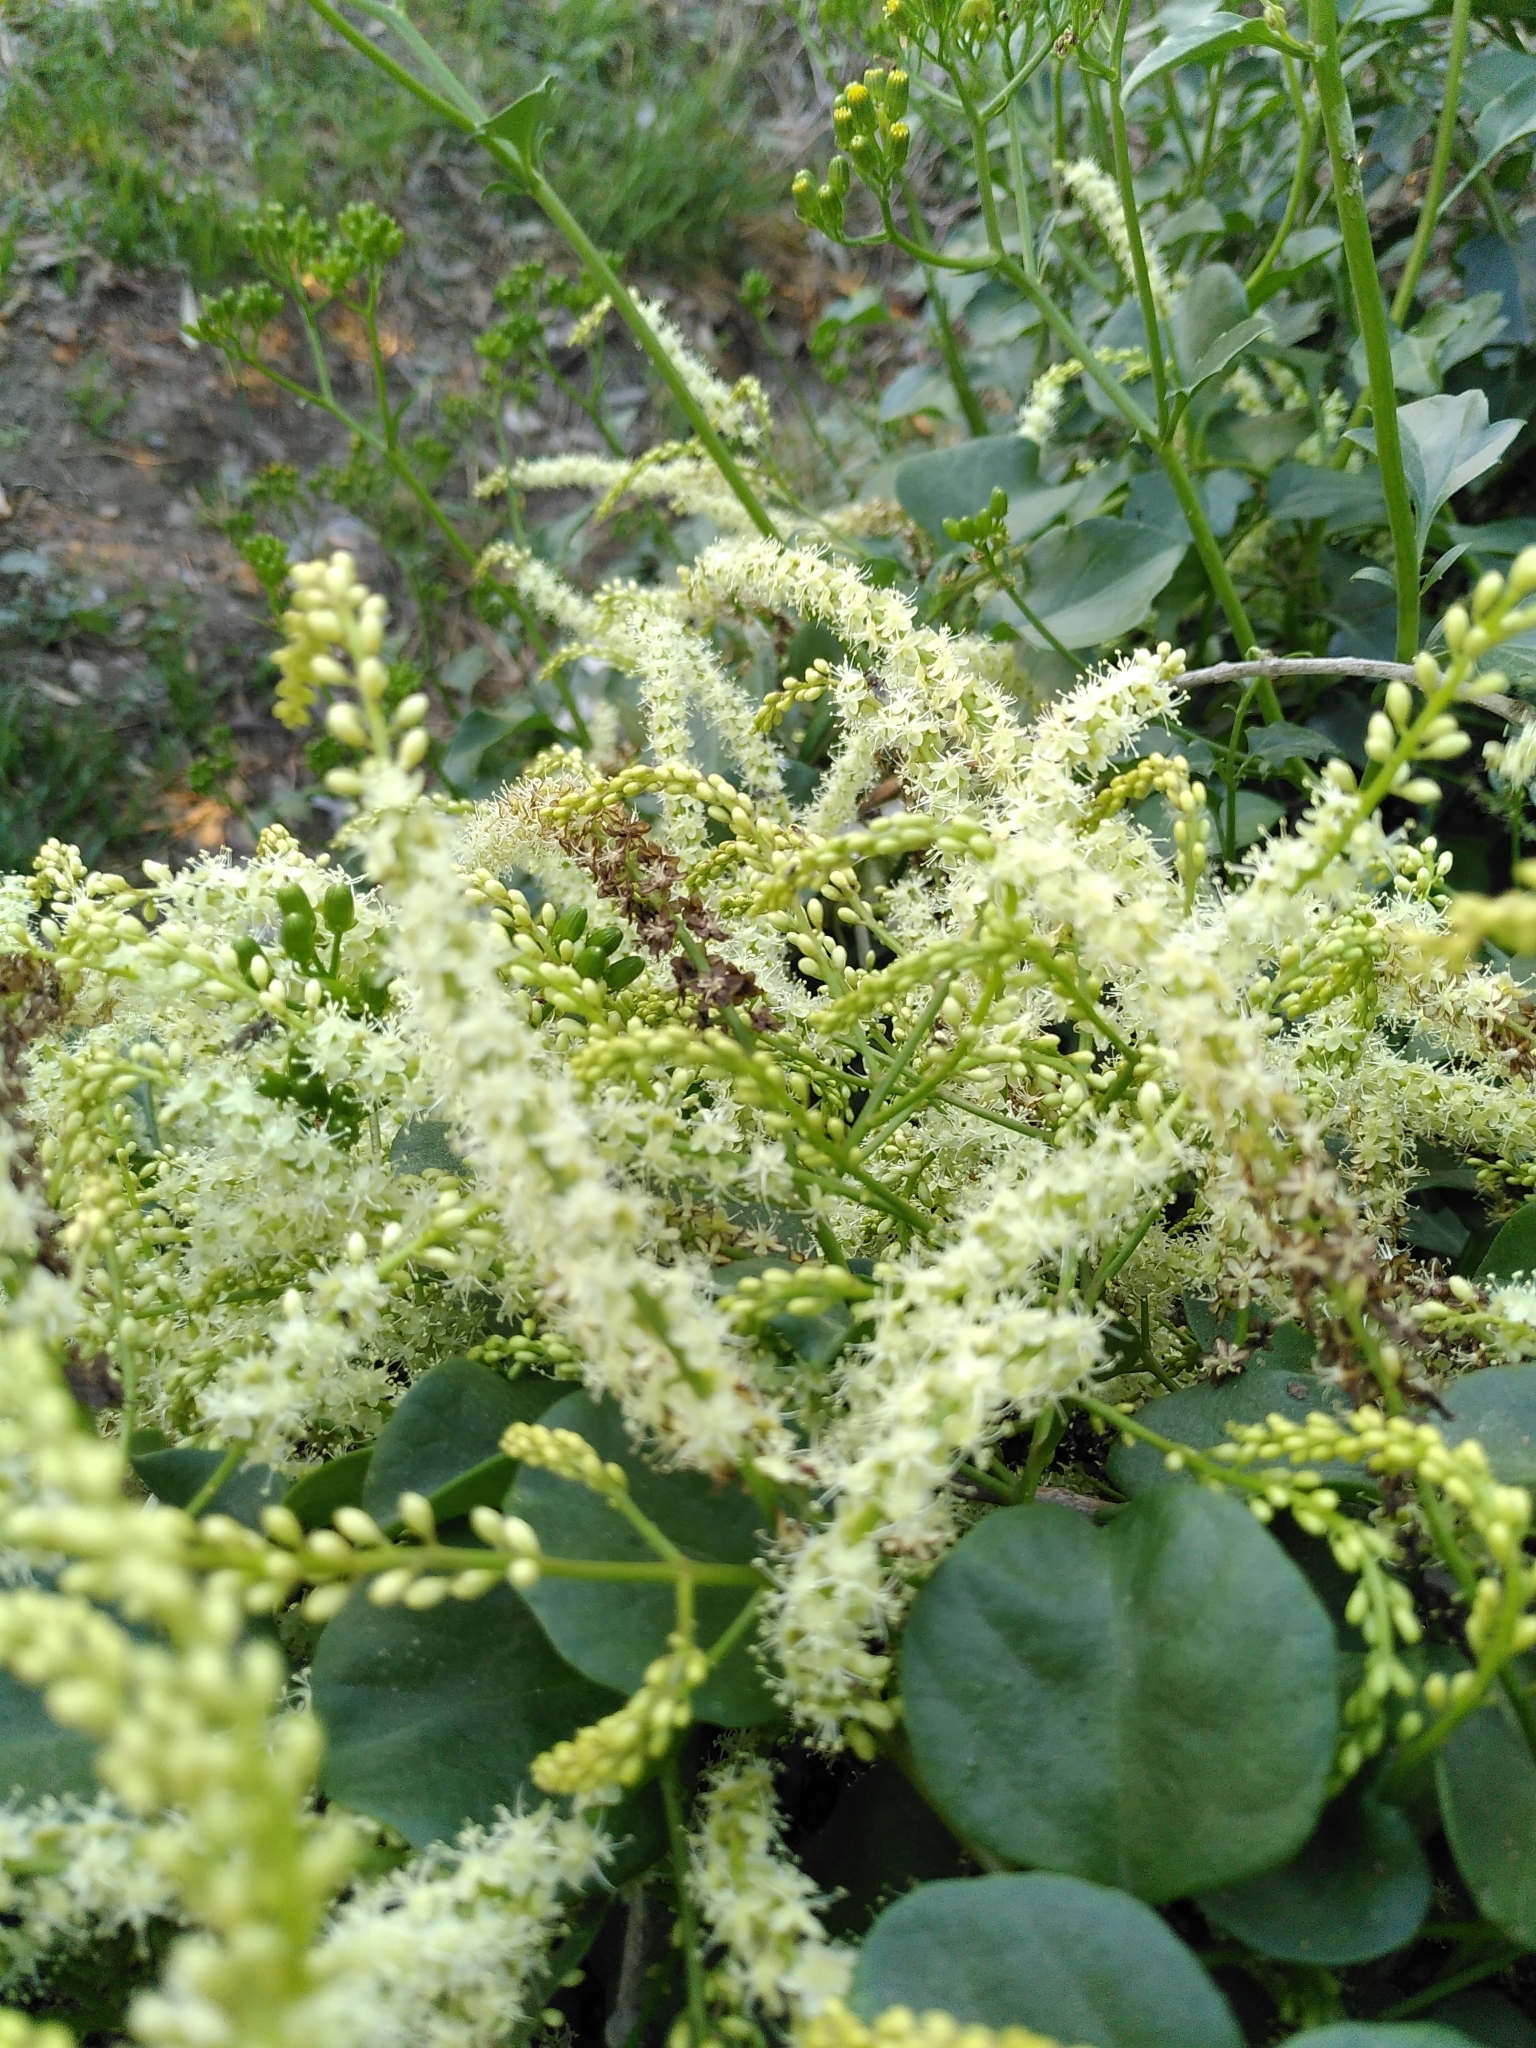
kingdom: Plantae
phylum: Tracheophyta
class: Magnoliopsida
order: Caryophyllales
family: Basellaceae
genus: Anredera
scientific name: Anredera cordifolia
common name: Heartleaf madeiravine
